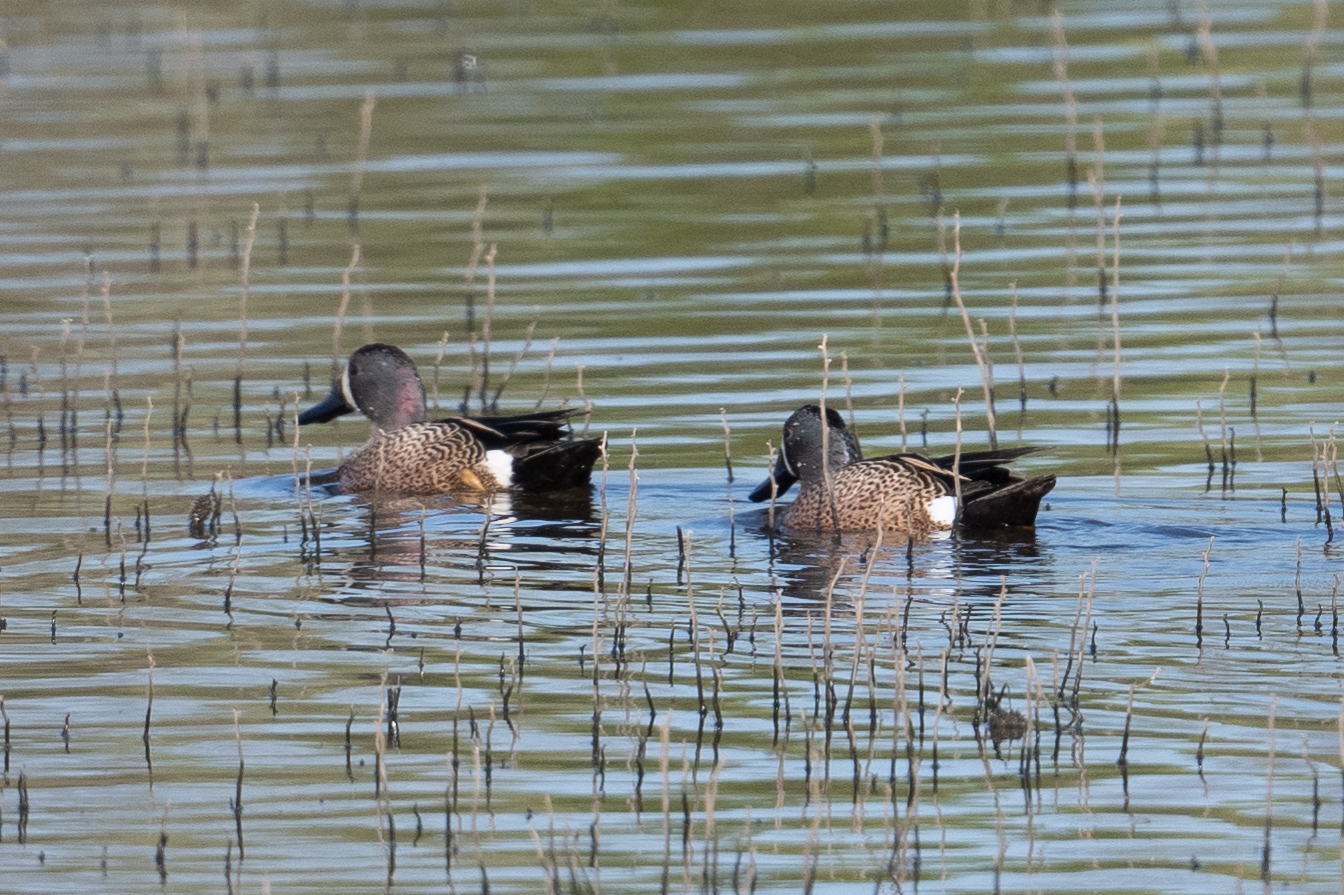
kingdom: Animalia
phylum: Chordata
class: Aves
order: Anseriformes
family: Anatidae
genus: Spatula
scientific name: Spatula discors
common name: Blue-winged teal
